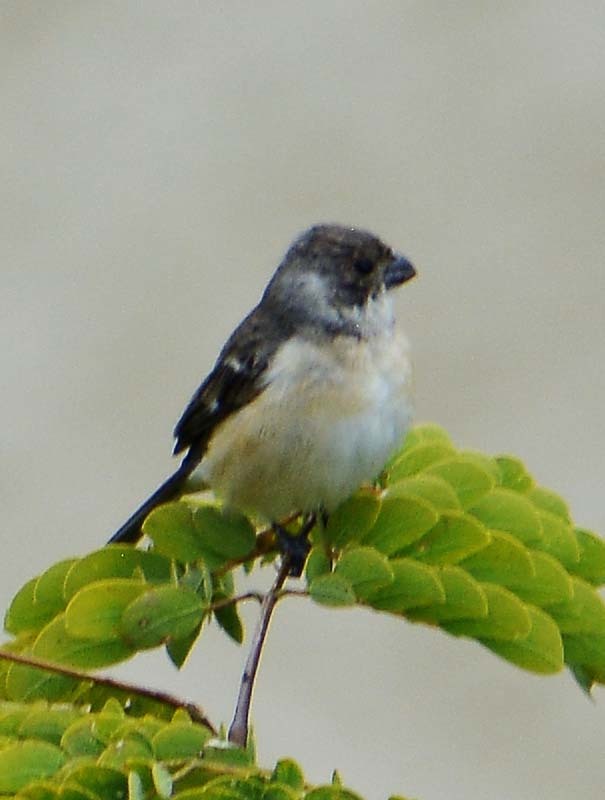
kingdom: Animalia
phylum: Chordata
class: Aves
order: Passeriformes
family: Thraupidae
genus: Sporophila
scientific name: Sporophila torqueola
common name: White-collared seedeater
